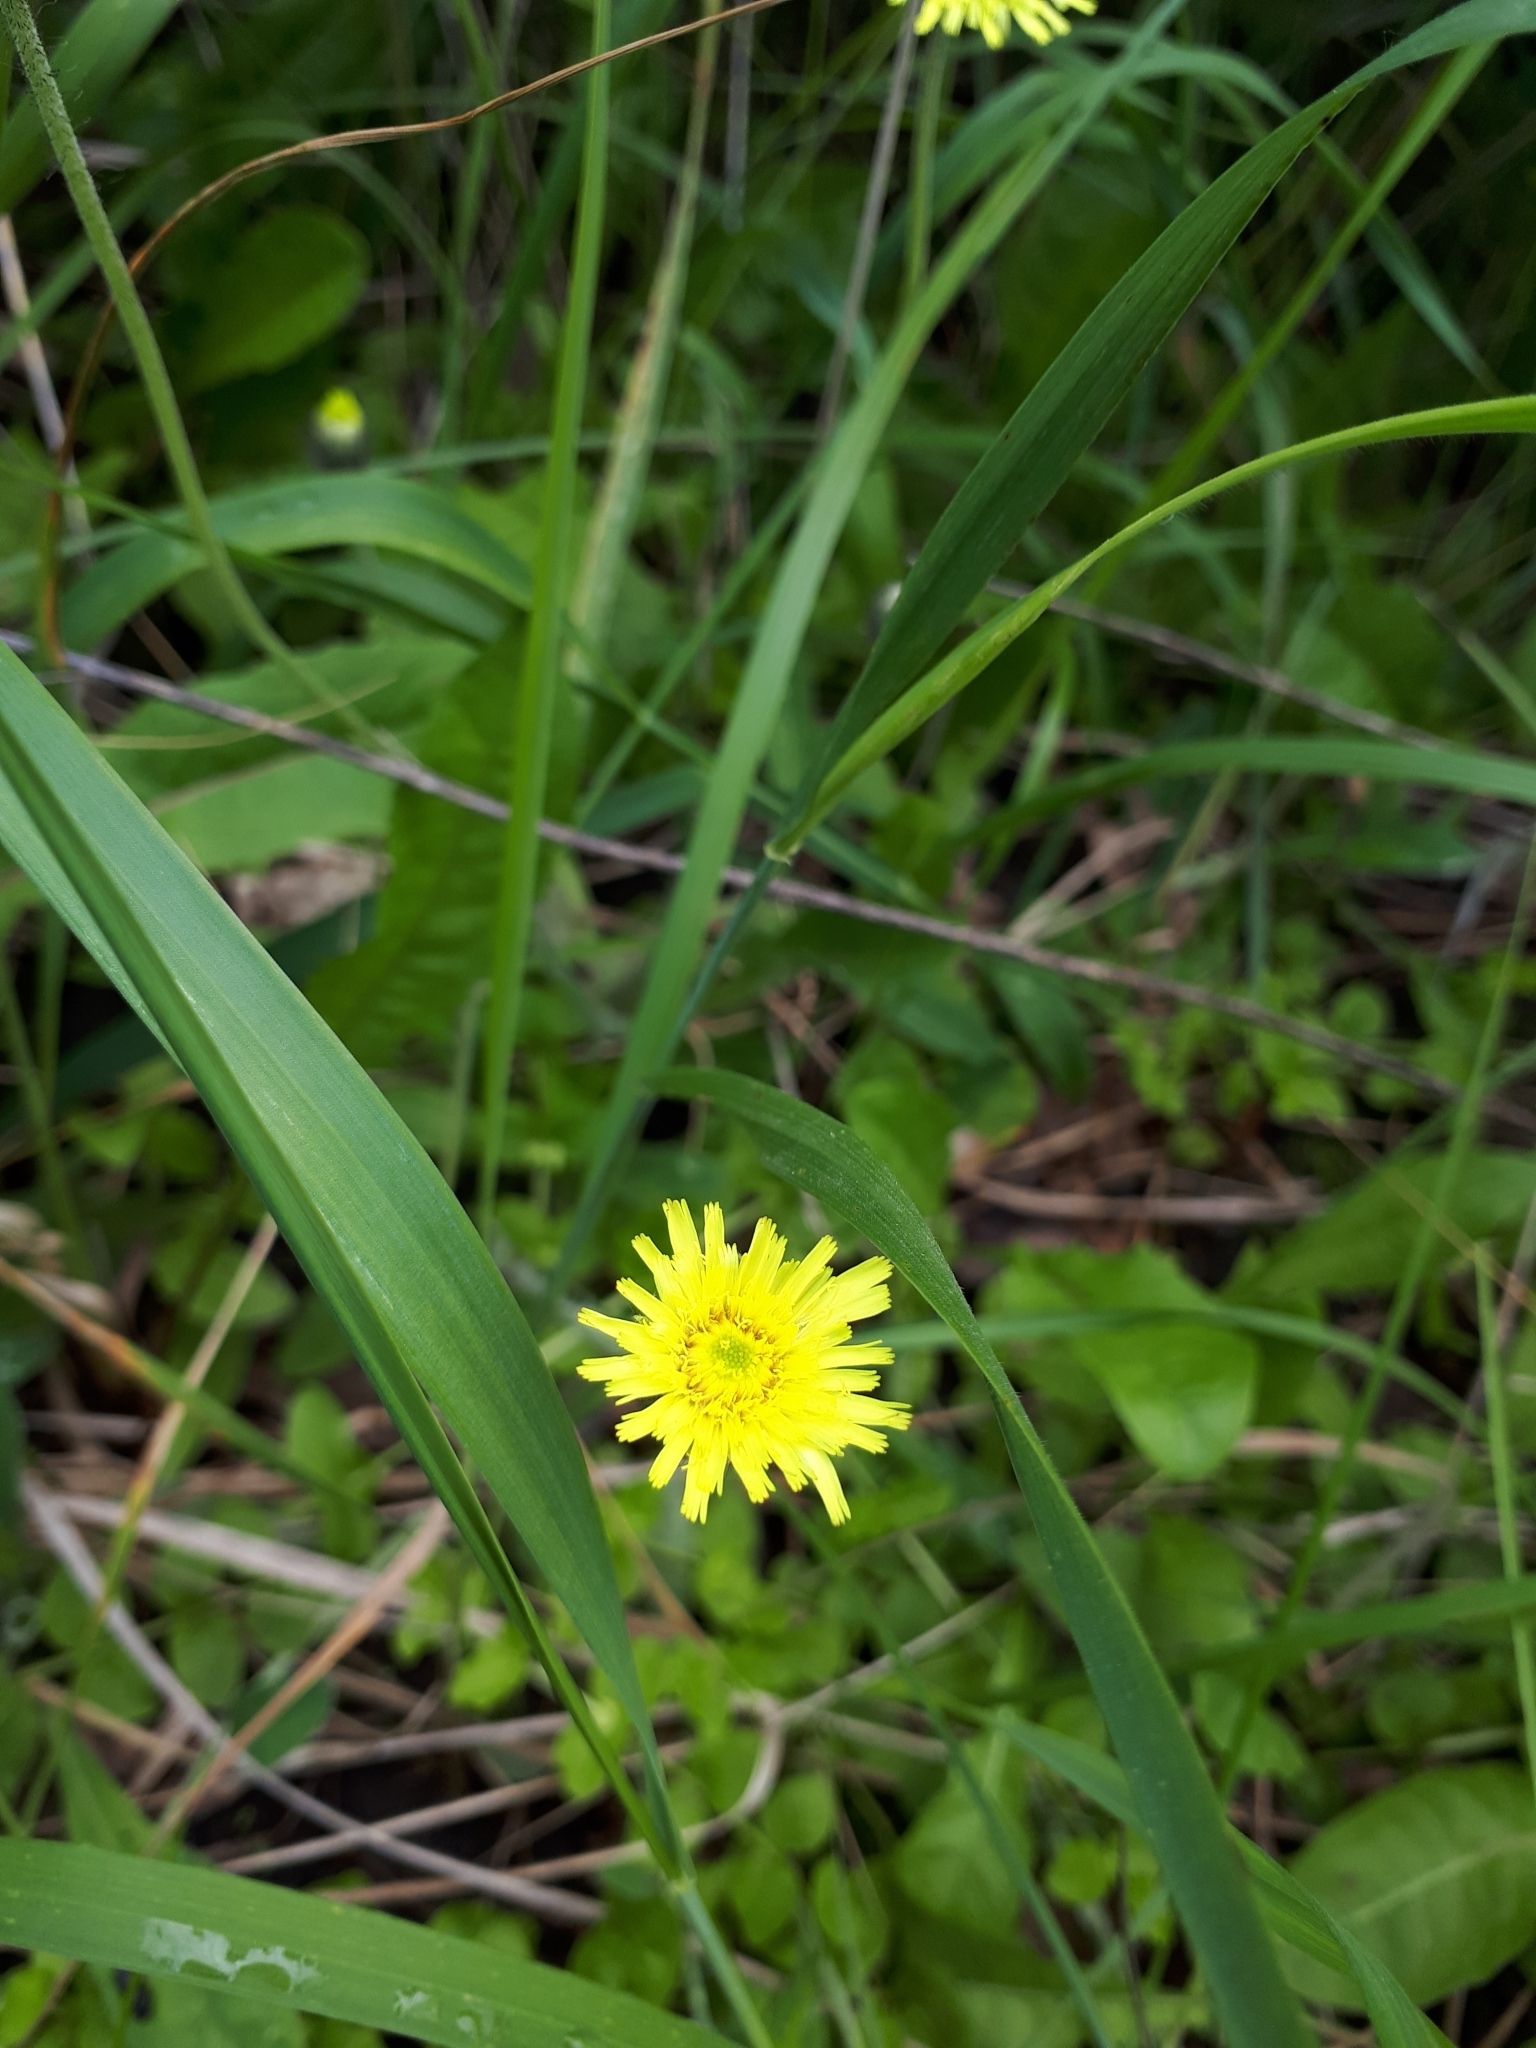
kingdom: Plantae
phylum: Tracheophyta
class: Magnoliopsida
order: Asterales
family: Asteraceae
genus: Pilosella
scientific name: Pilosella officinarum
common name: Mouse-ear hawkweed
